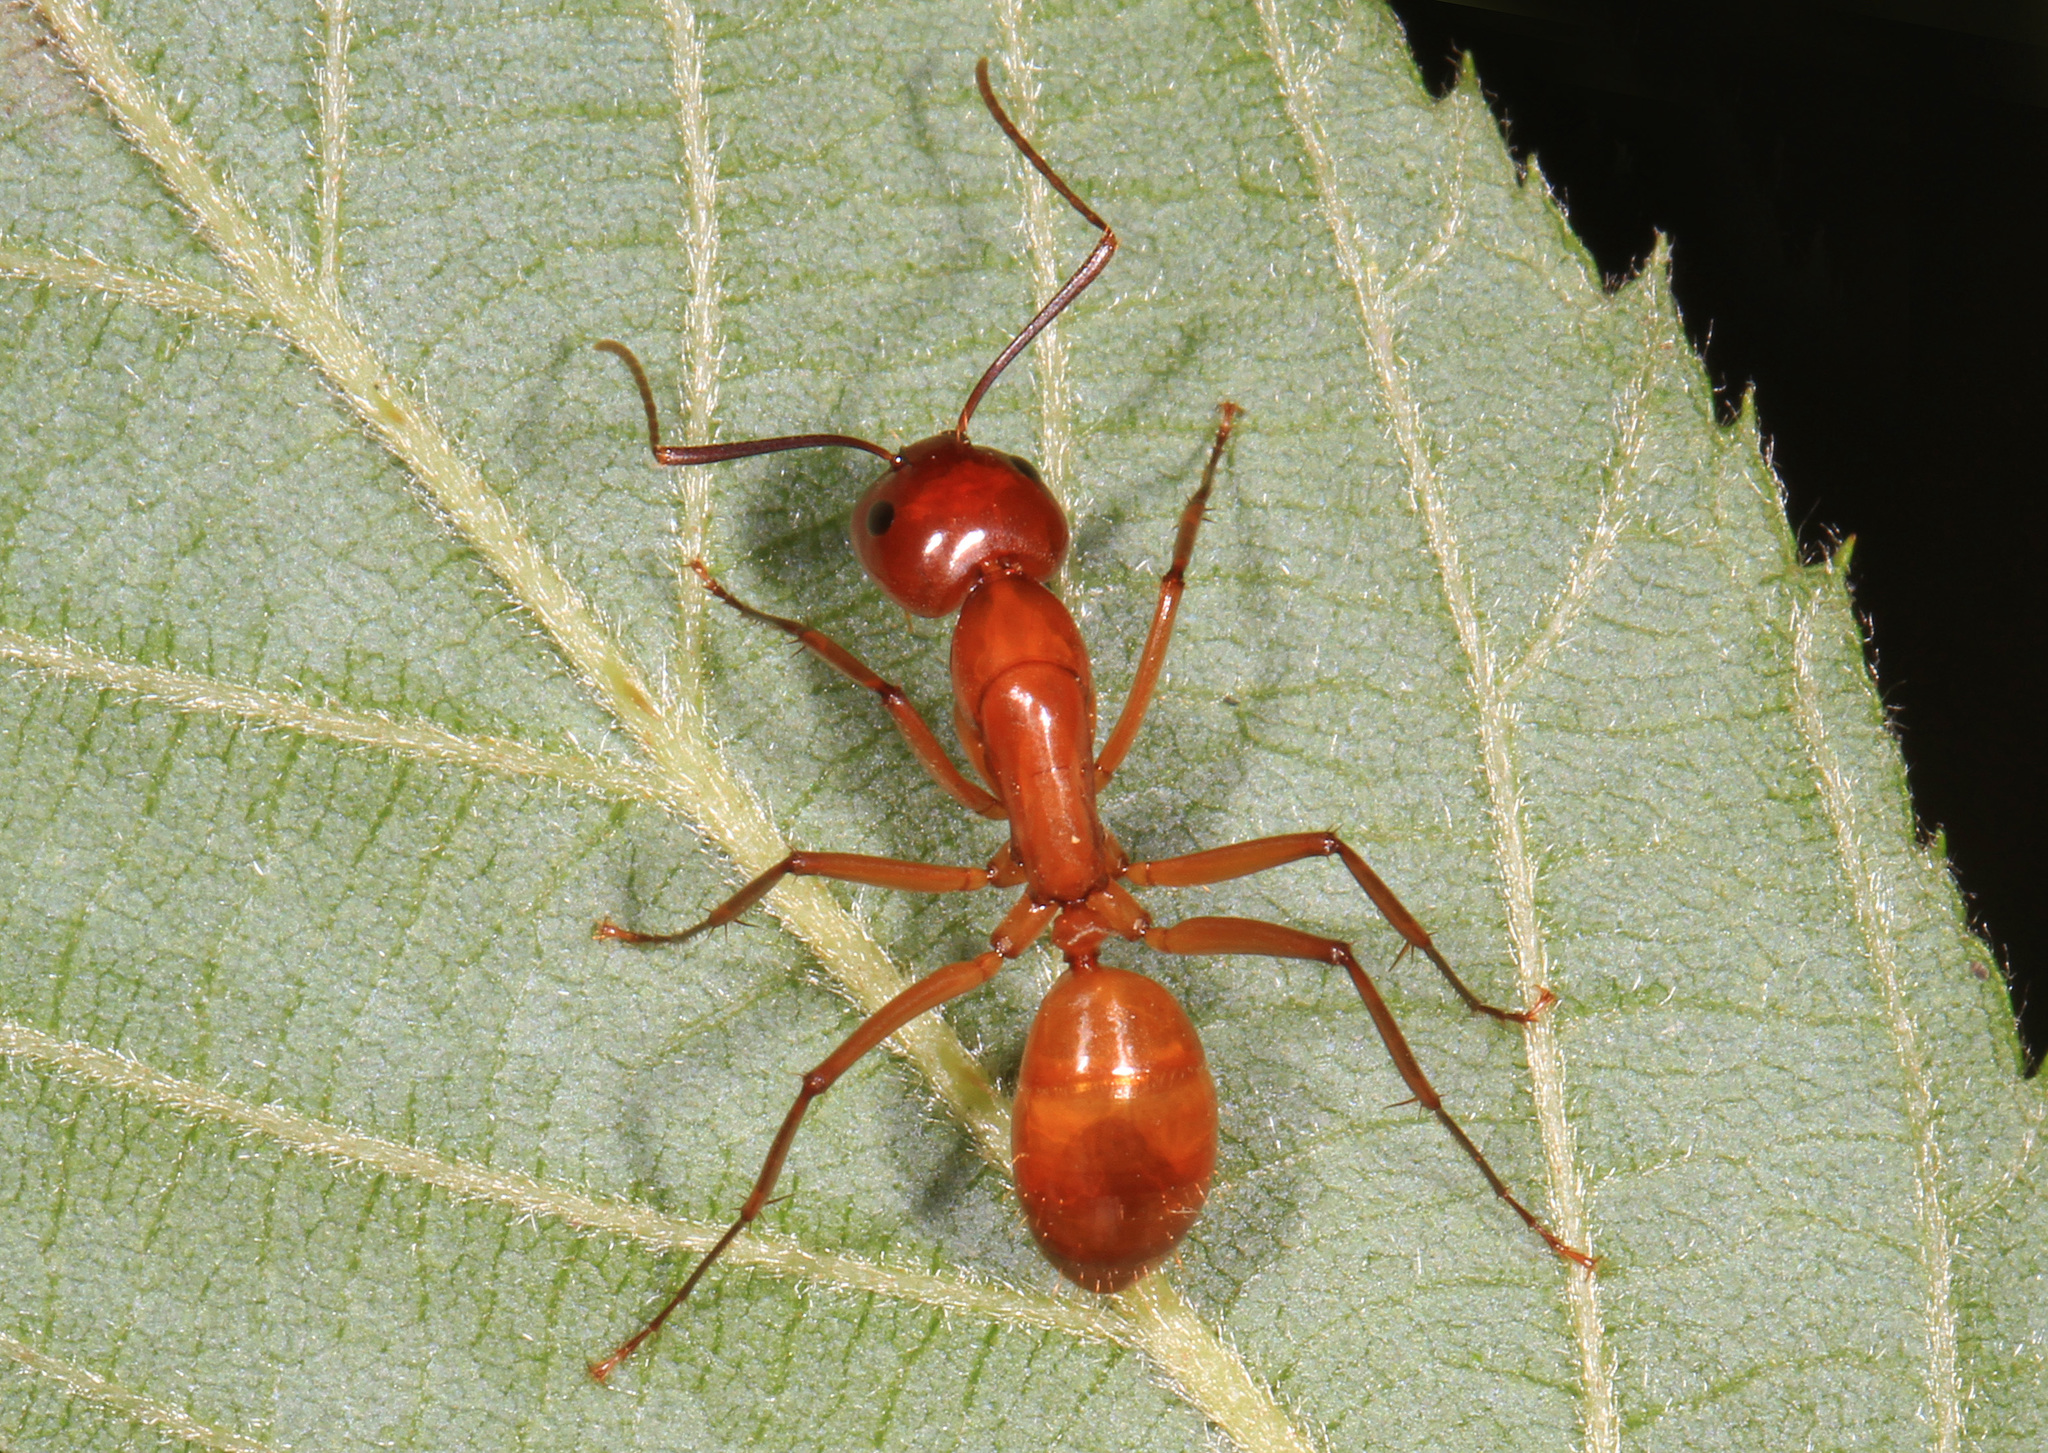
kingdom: Animalia
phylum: Arthropoda
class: Insecta
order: Hymenoptera
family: Formicidae
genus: Camponotus
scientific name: Camponotus castaneus
